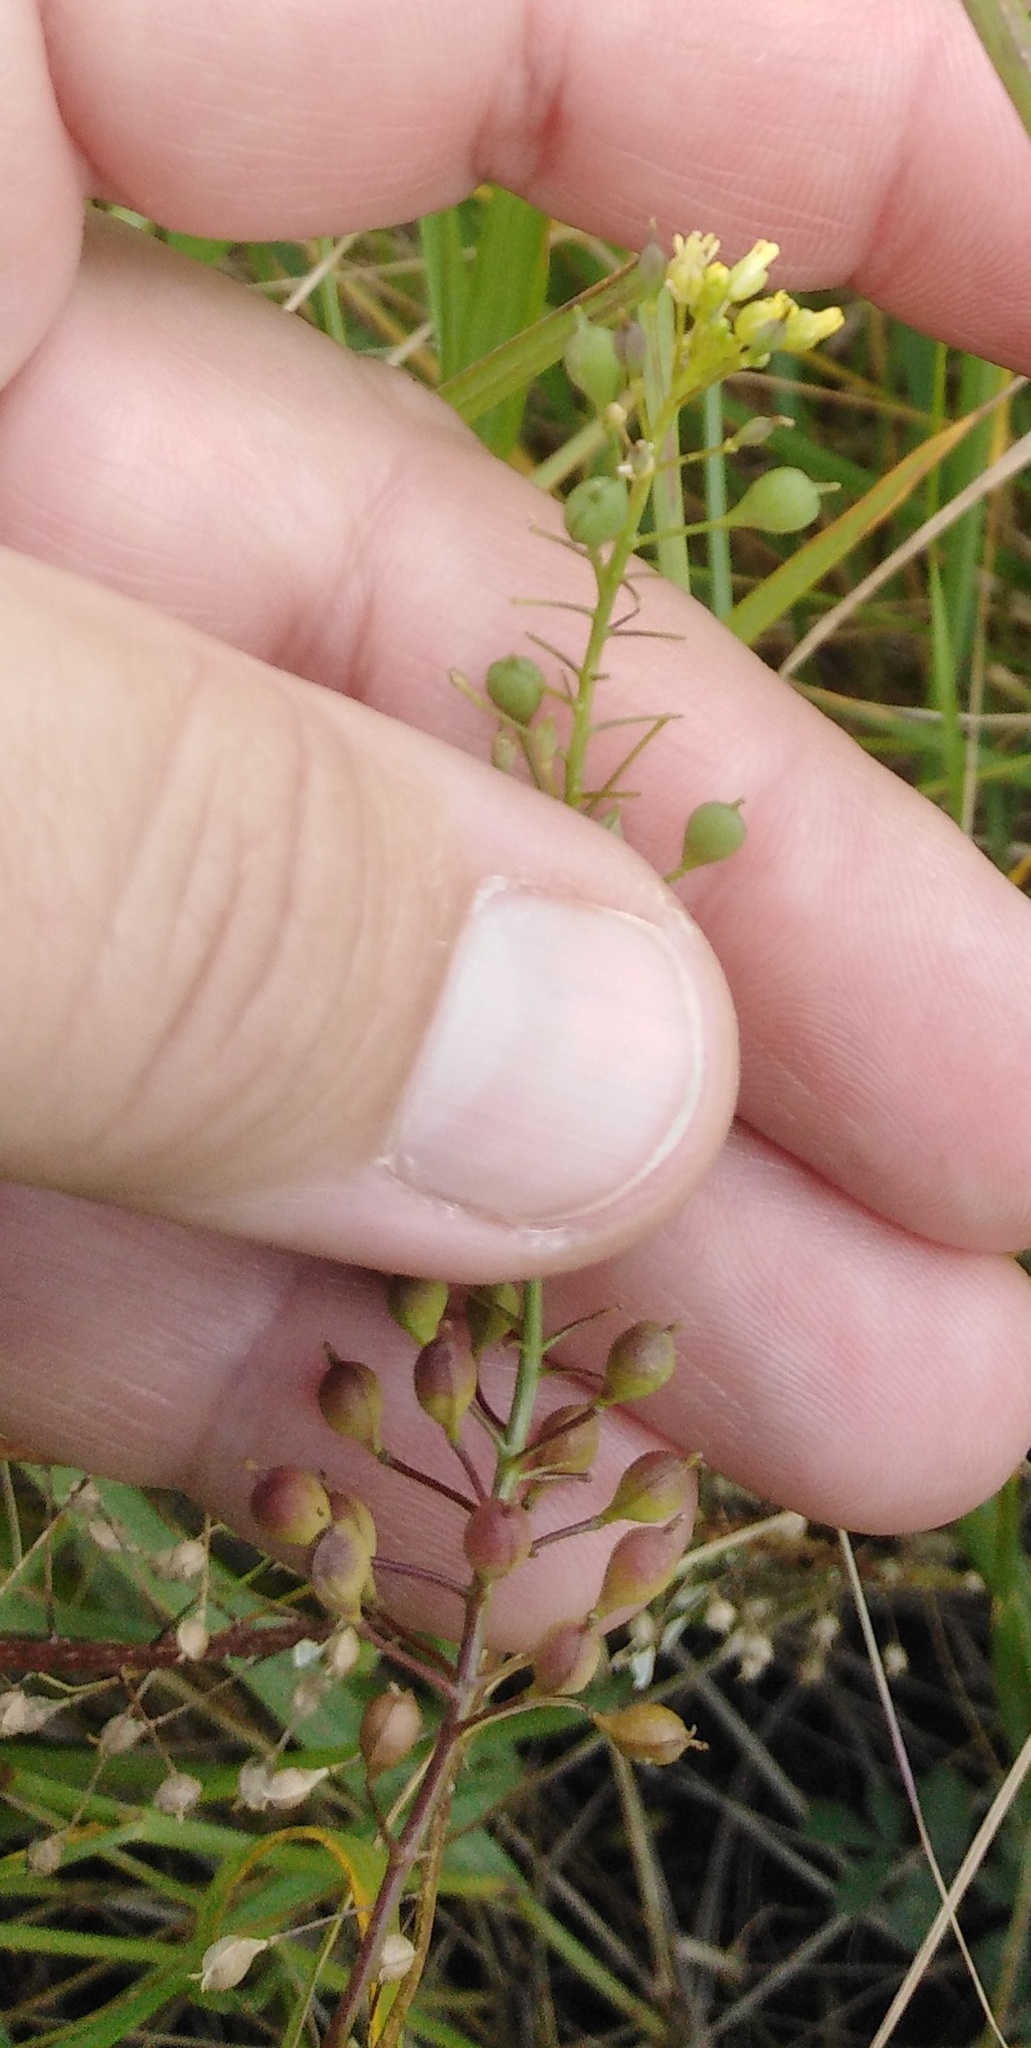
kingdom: Plantae
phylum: Tracheophyta
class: Magnoliopsida
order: Brassicales
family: Brassicaceae
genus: Camelina
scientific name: Camelina microcarpa
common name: Lesser gold-of-pleasure
